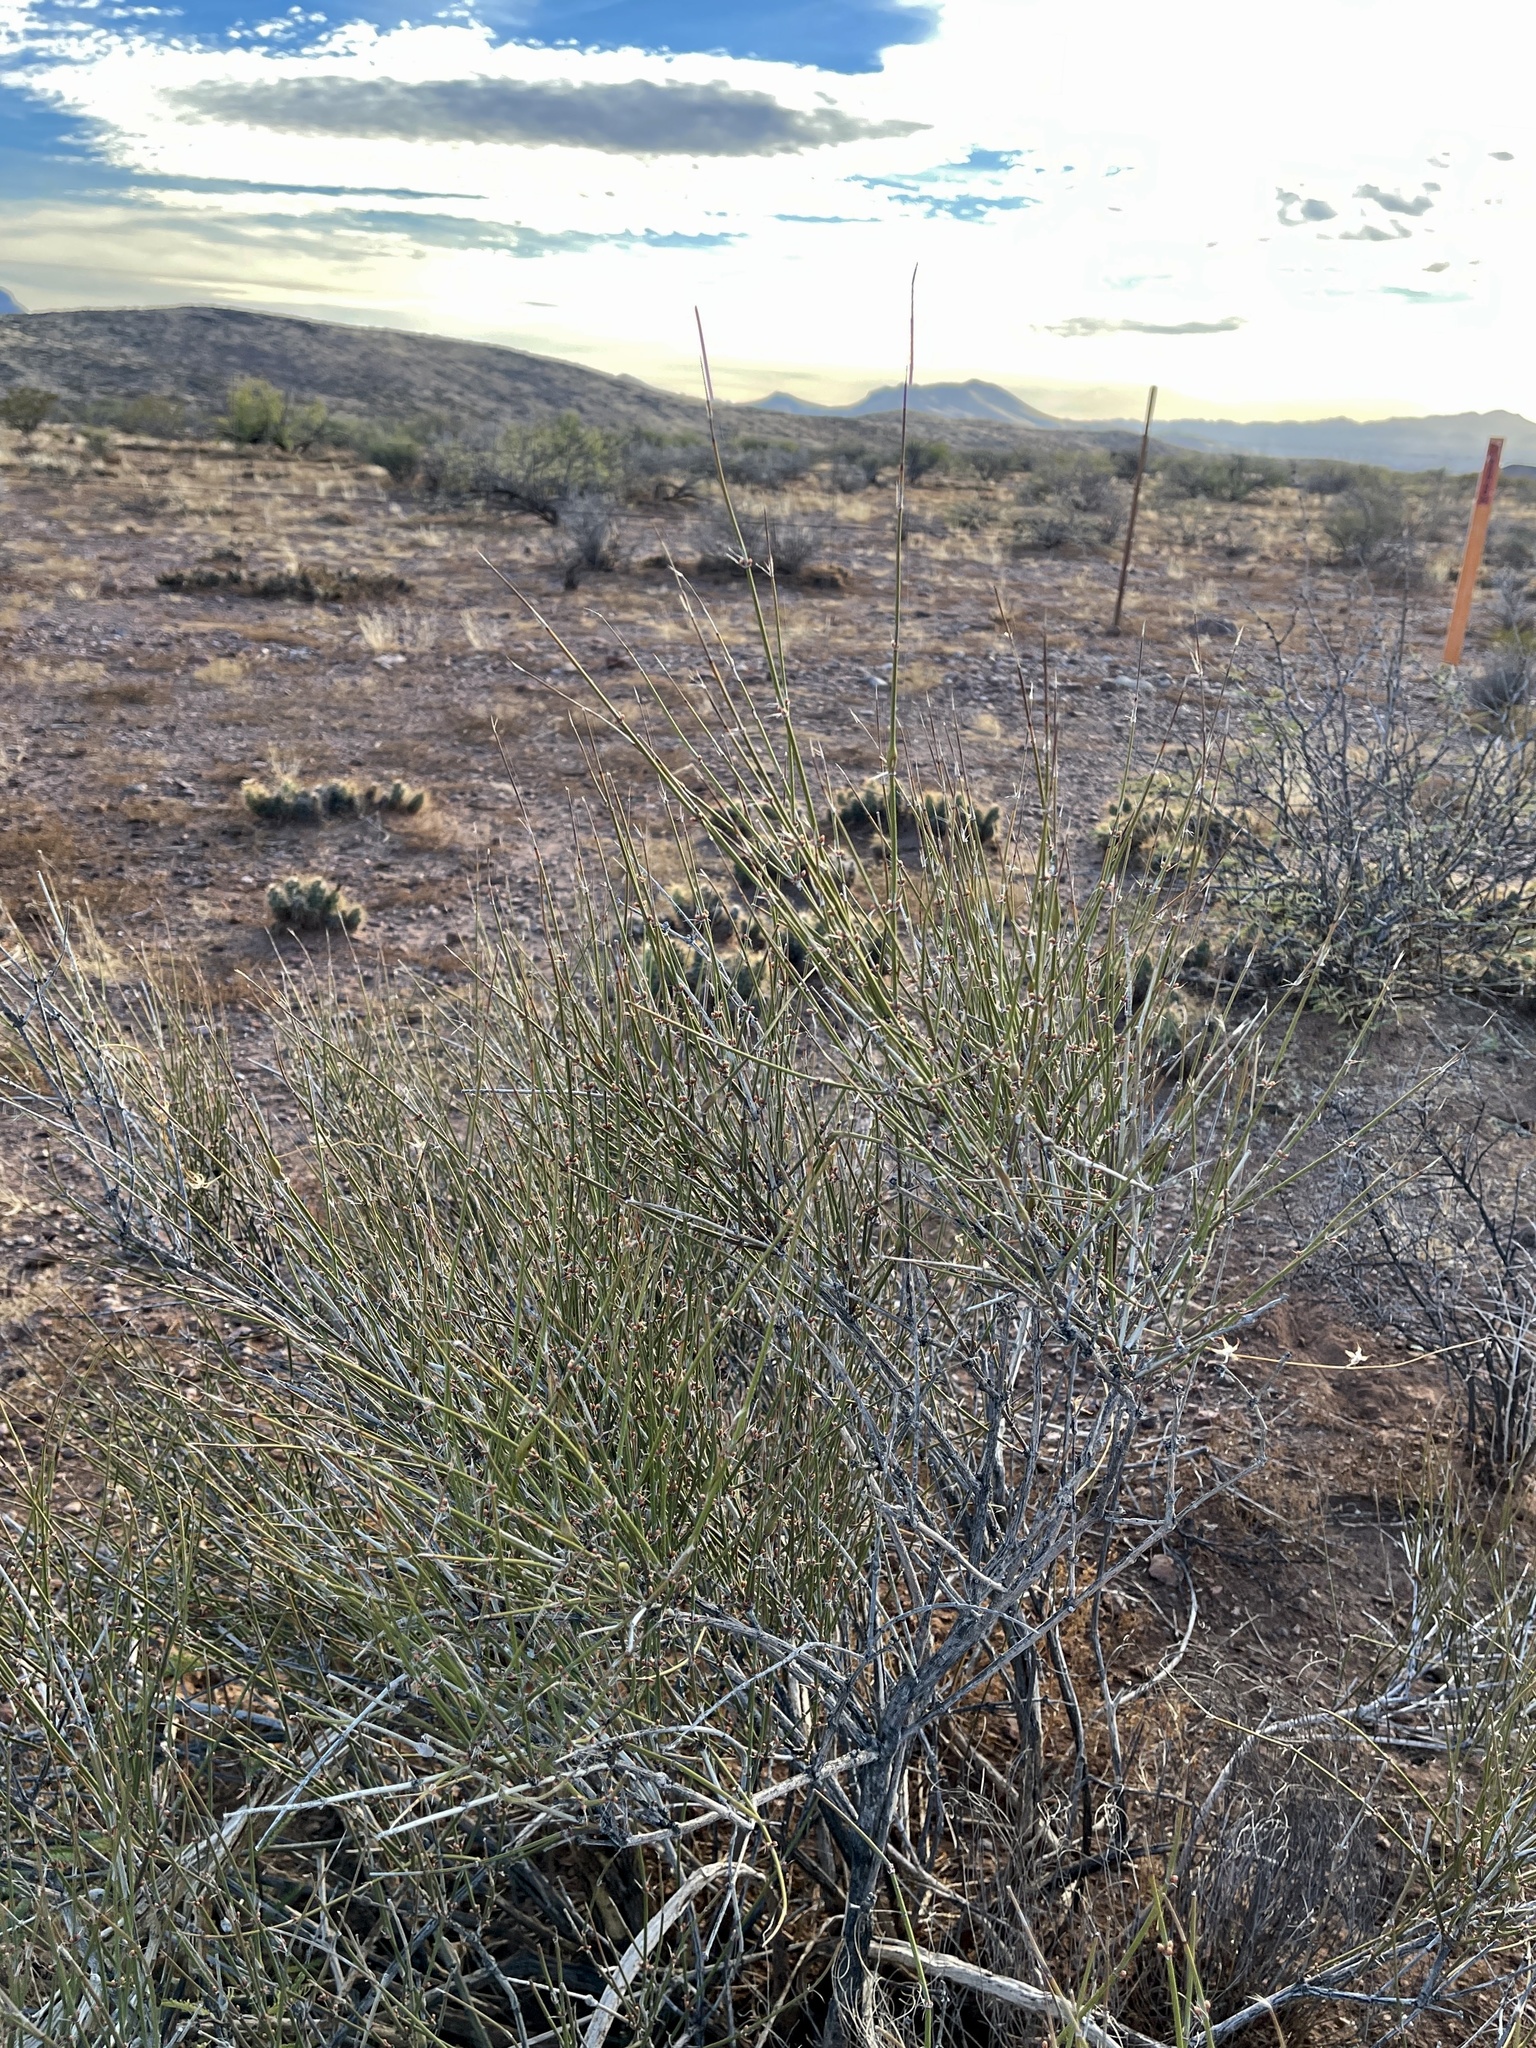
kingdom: Plantae
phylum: Tracheophyta
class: Gnetopsida
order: Ephedrales
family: Ephedraceae
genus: Ephedra
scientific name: Ephedra trifurca
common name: Mexican-tea
